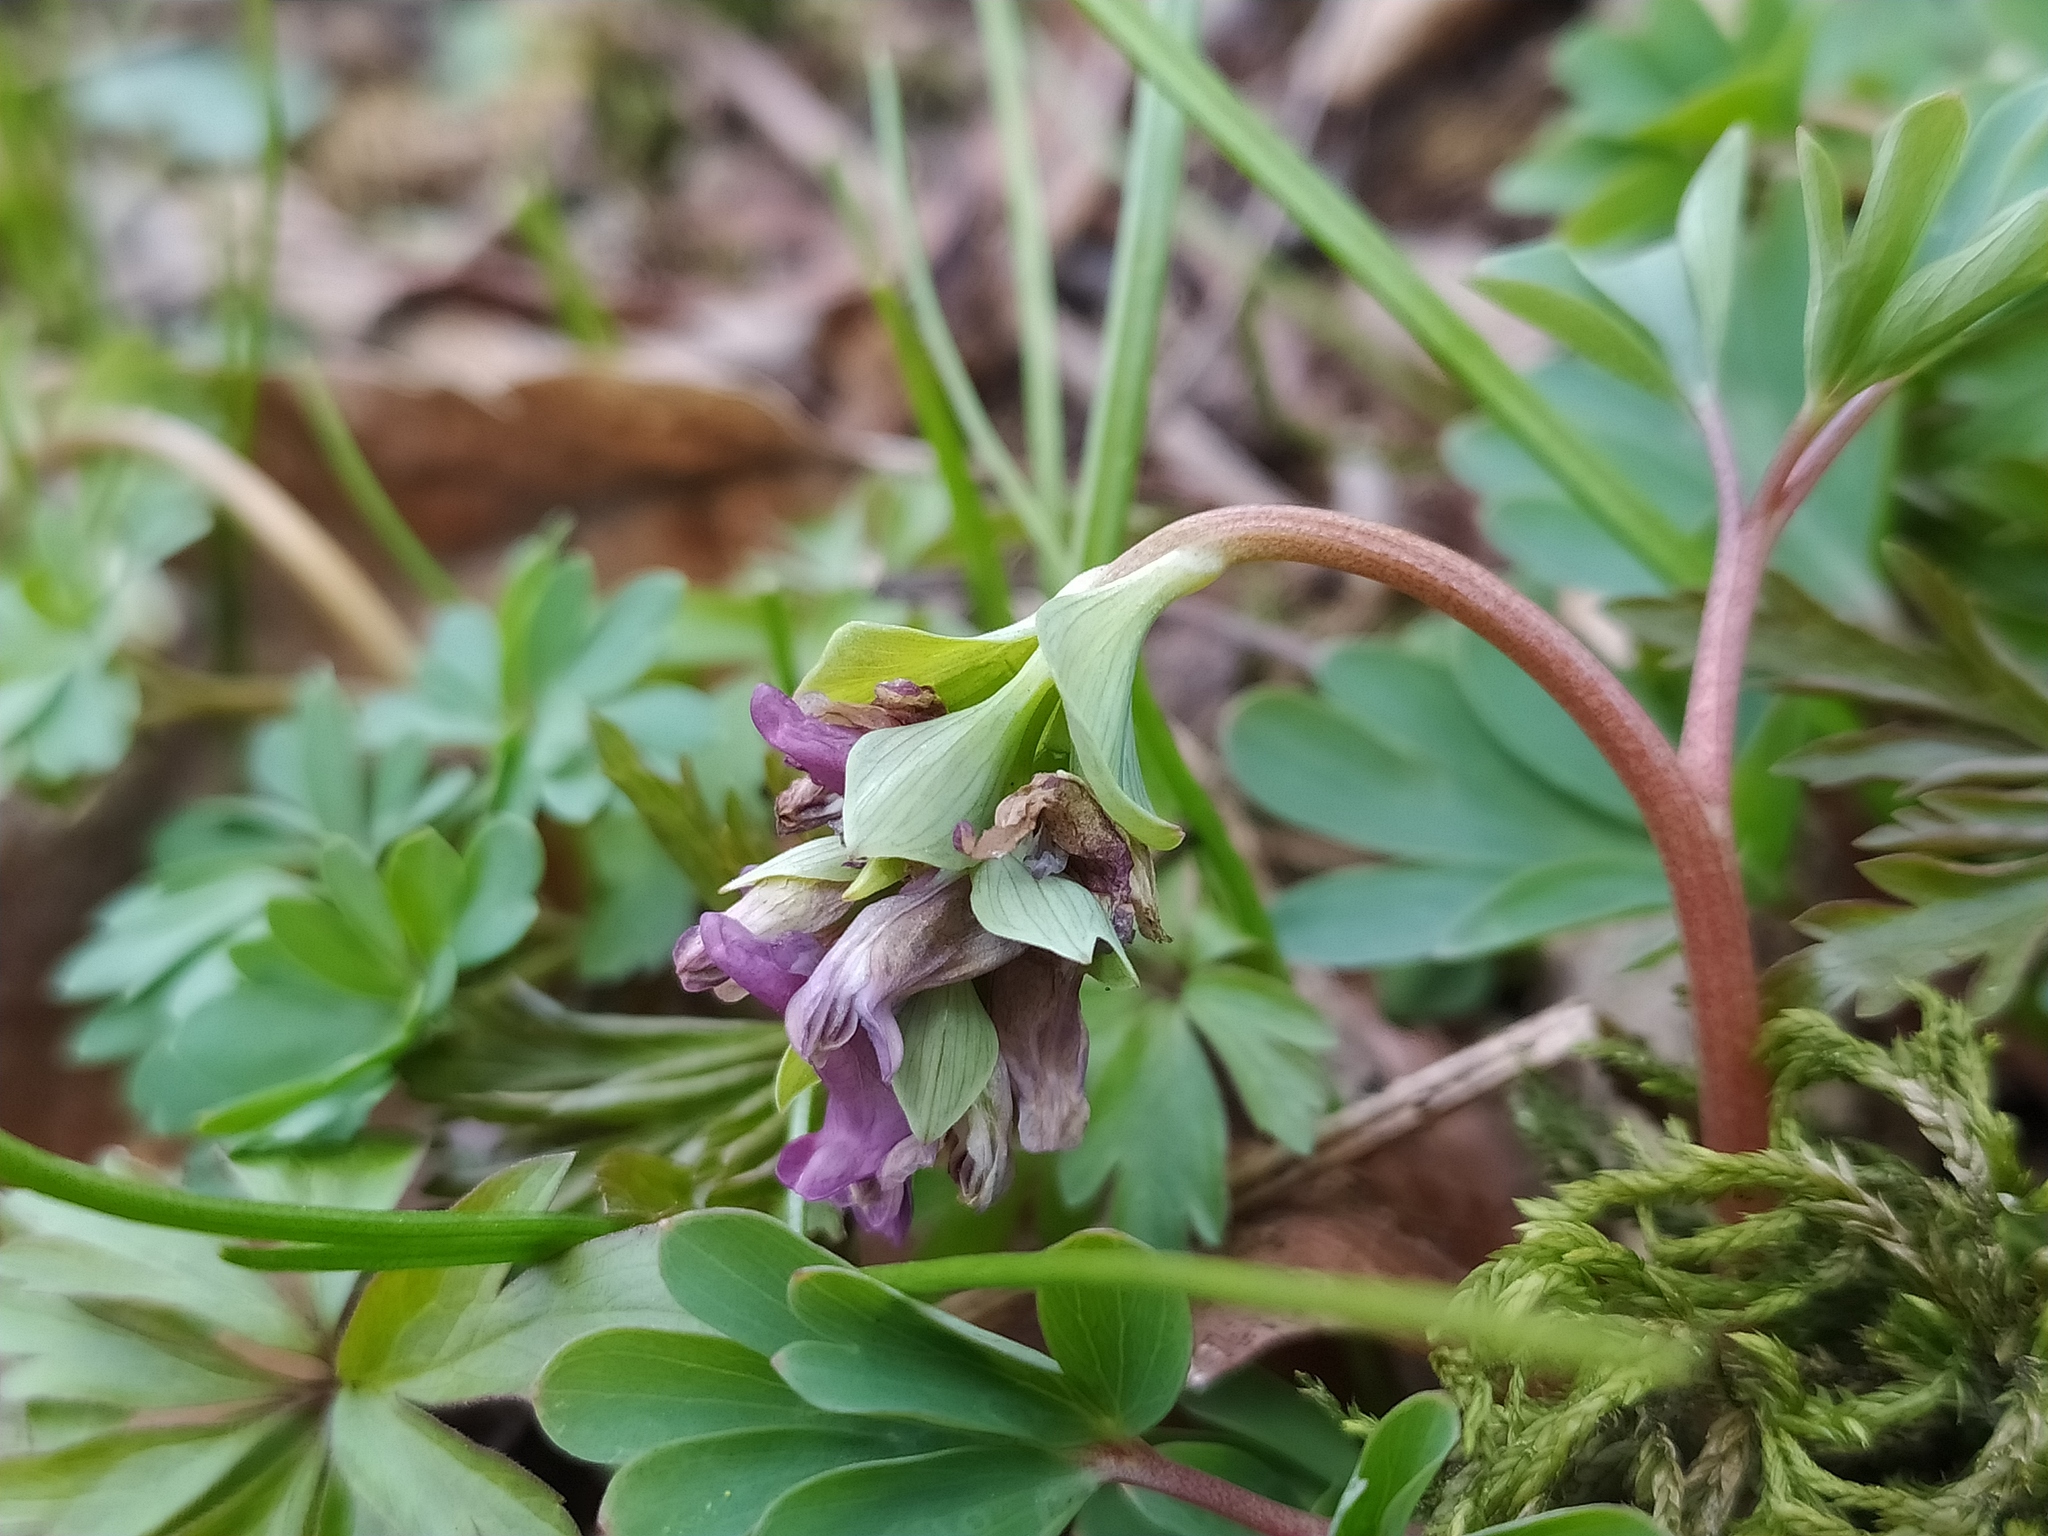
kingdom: Plantae
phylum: Tracheophyta
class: Magnoliopsida
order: Ranunculales
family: Papaveraceae
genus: Corydalis
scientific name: Corydalis intermedia
